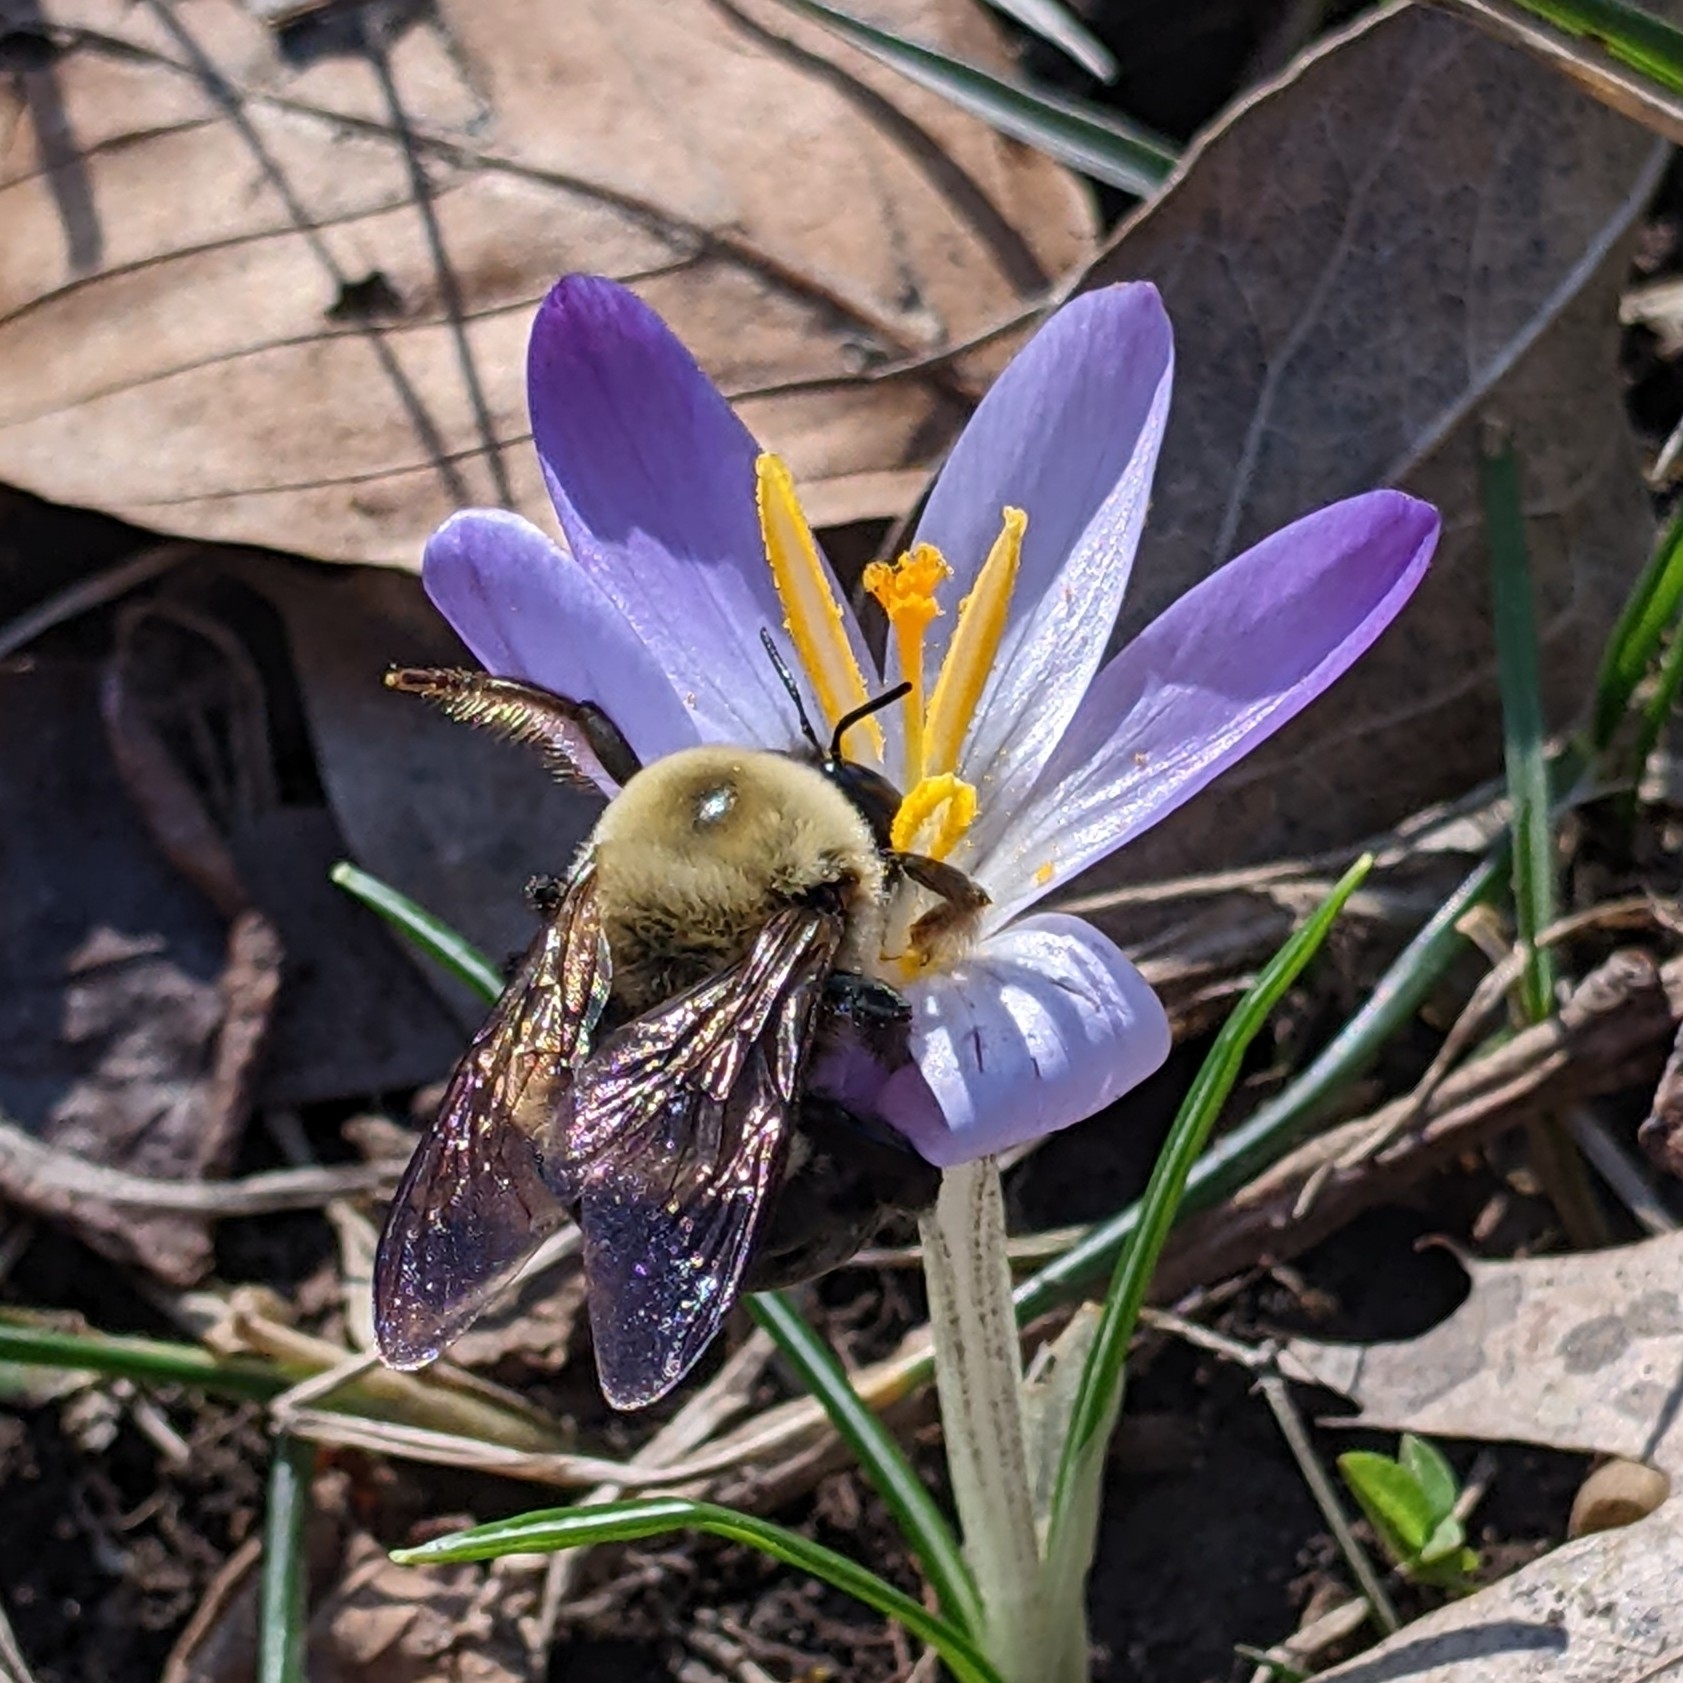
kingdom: Animalia
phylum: Arthropoda
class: Insecta
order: Hymenoptera
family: Apidae
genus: Xylocopa
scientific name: Xylocopa virginica
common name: Carpenter bee
